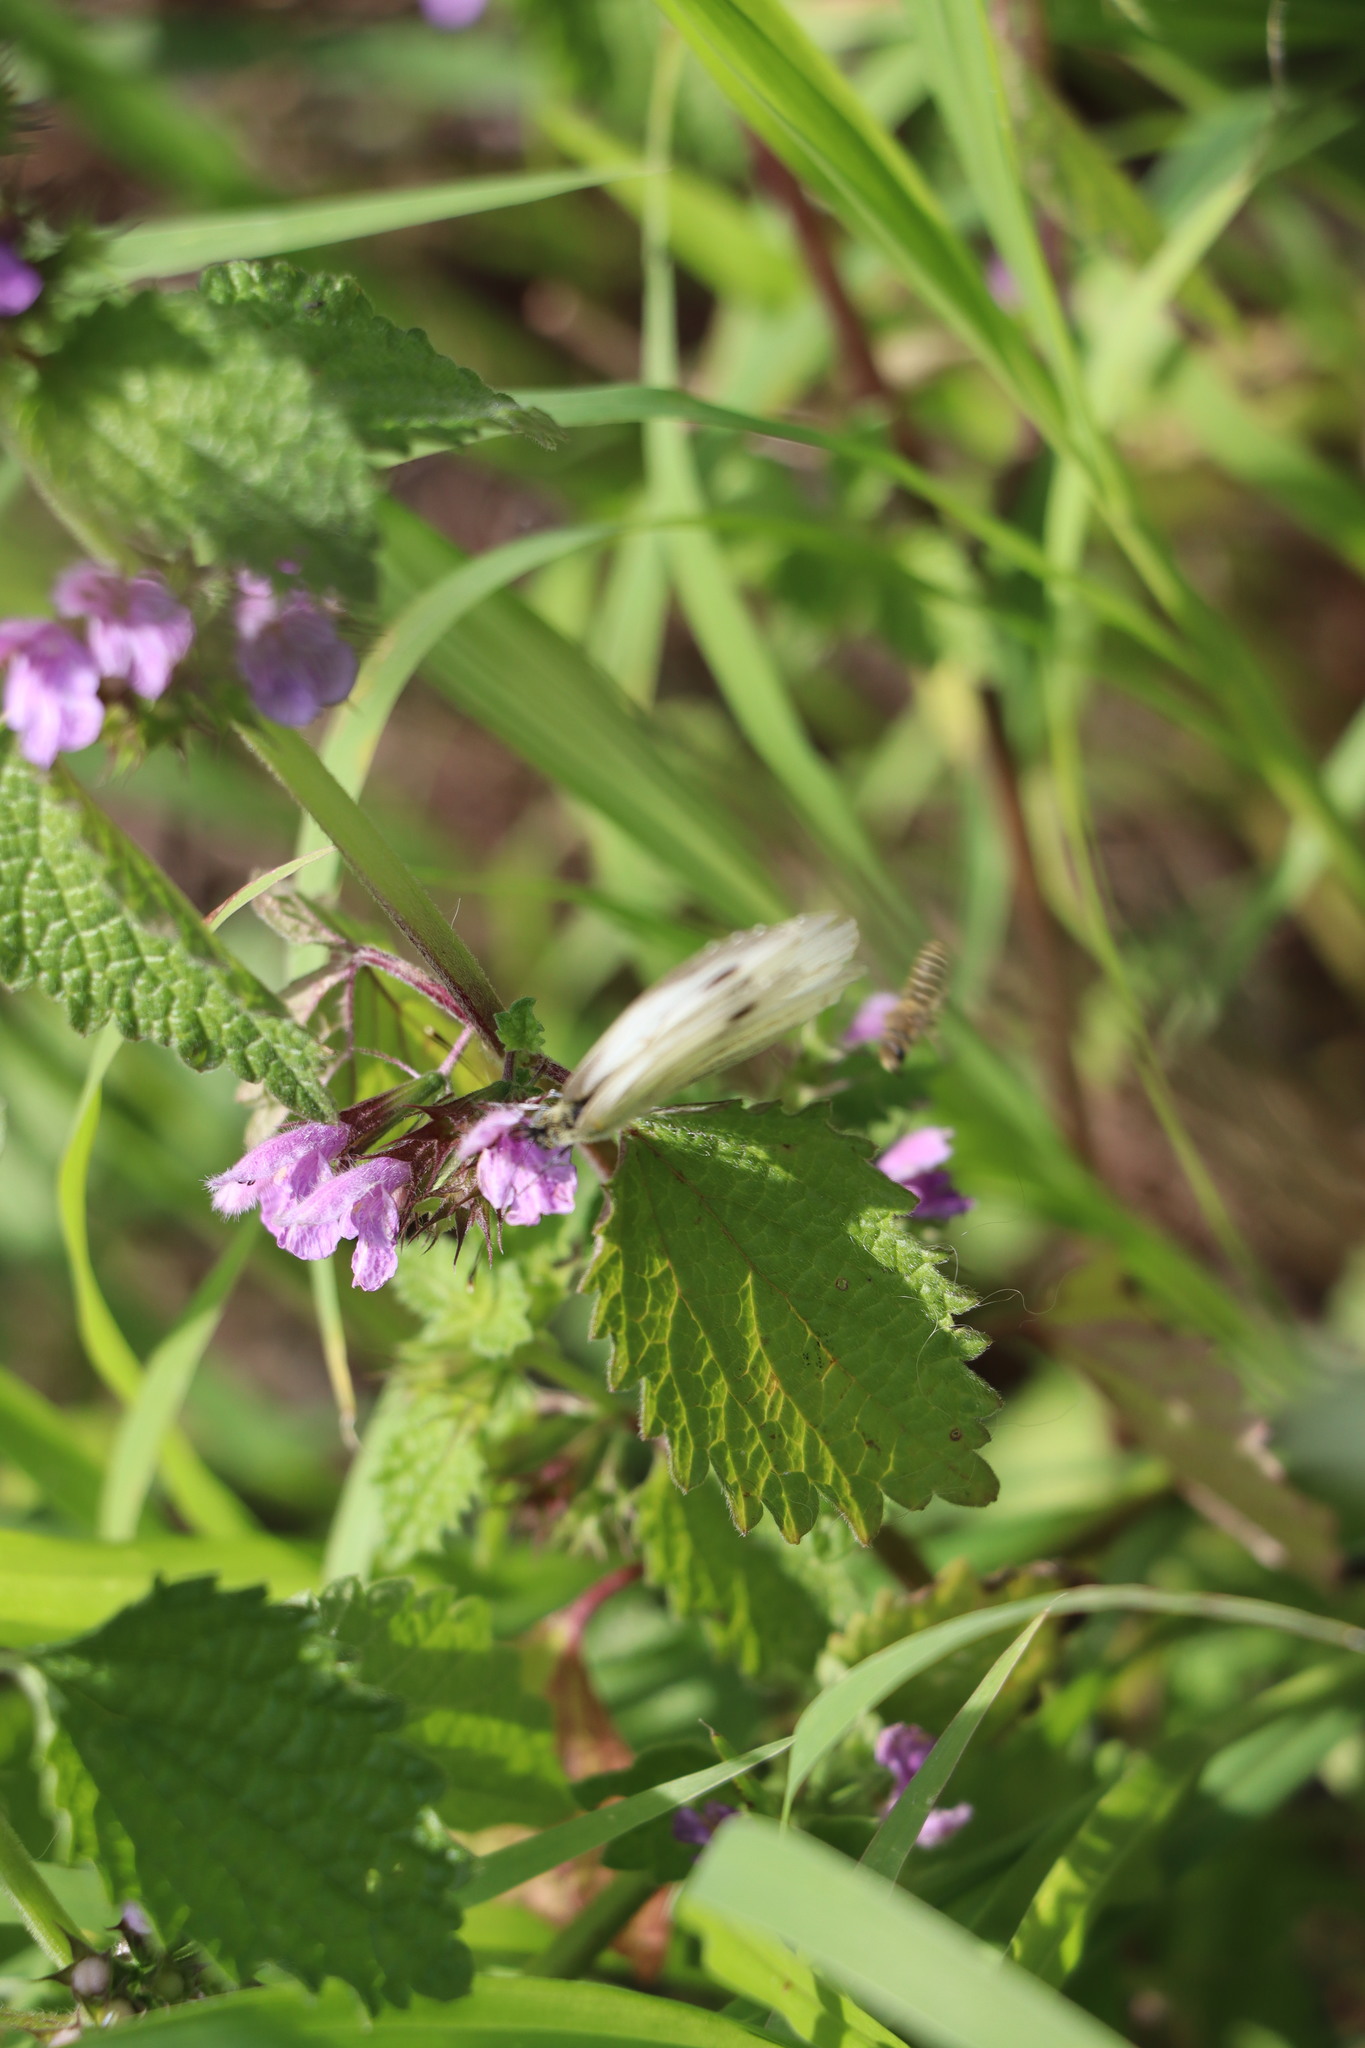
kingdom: Animalia
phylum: Arthropoda
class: Insecta
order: Lepidoptera
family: Pieridae
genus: Pieris
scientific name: Pieris napi
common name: Green-veined white
